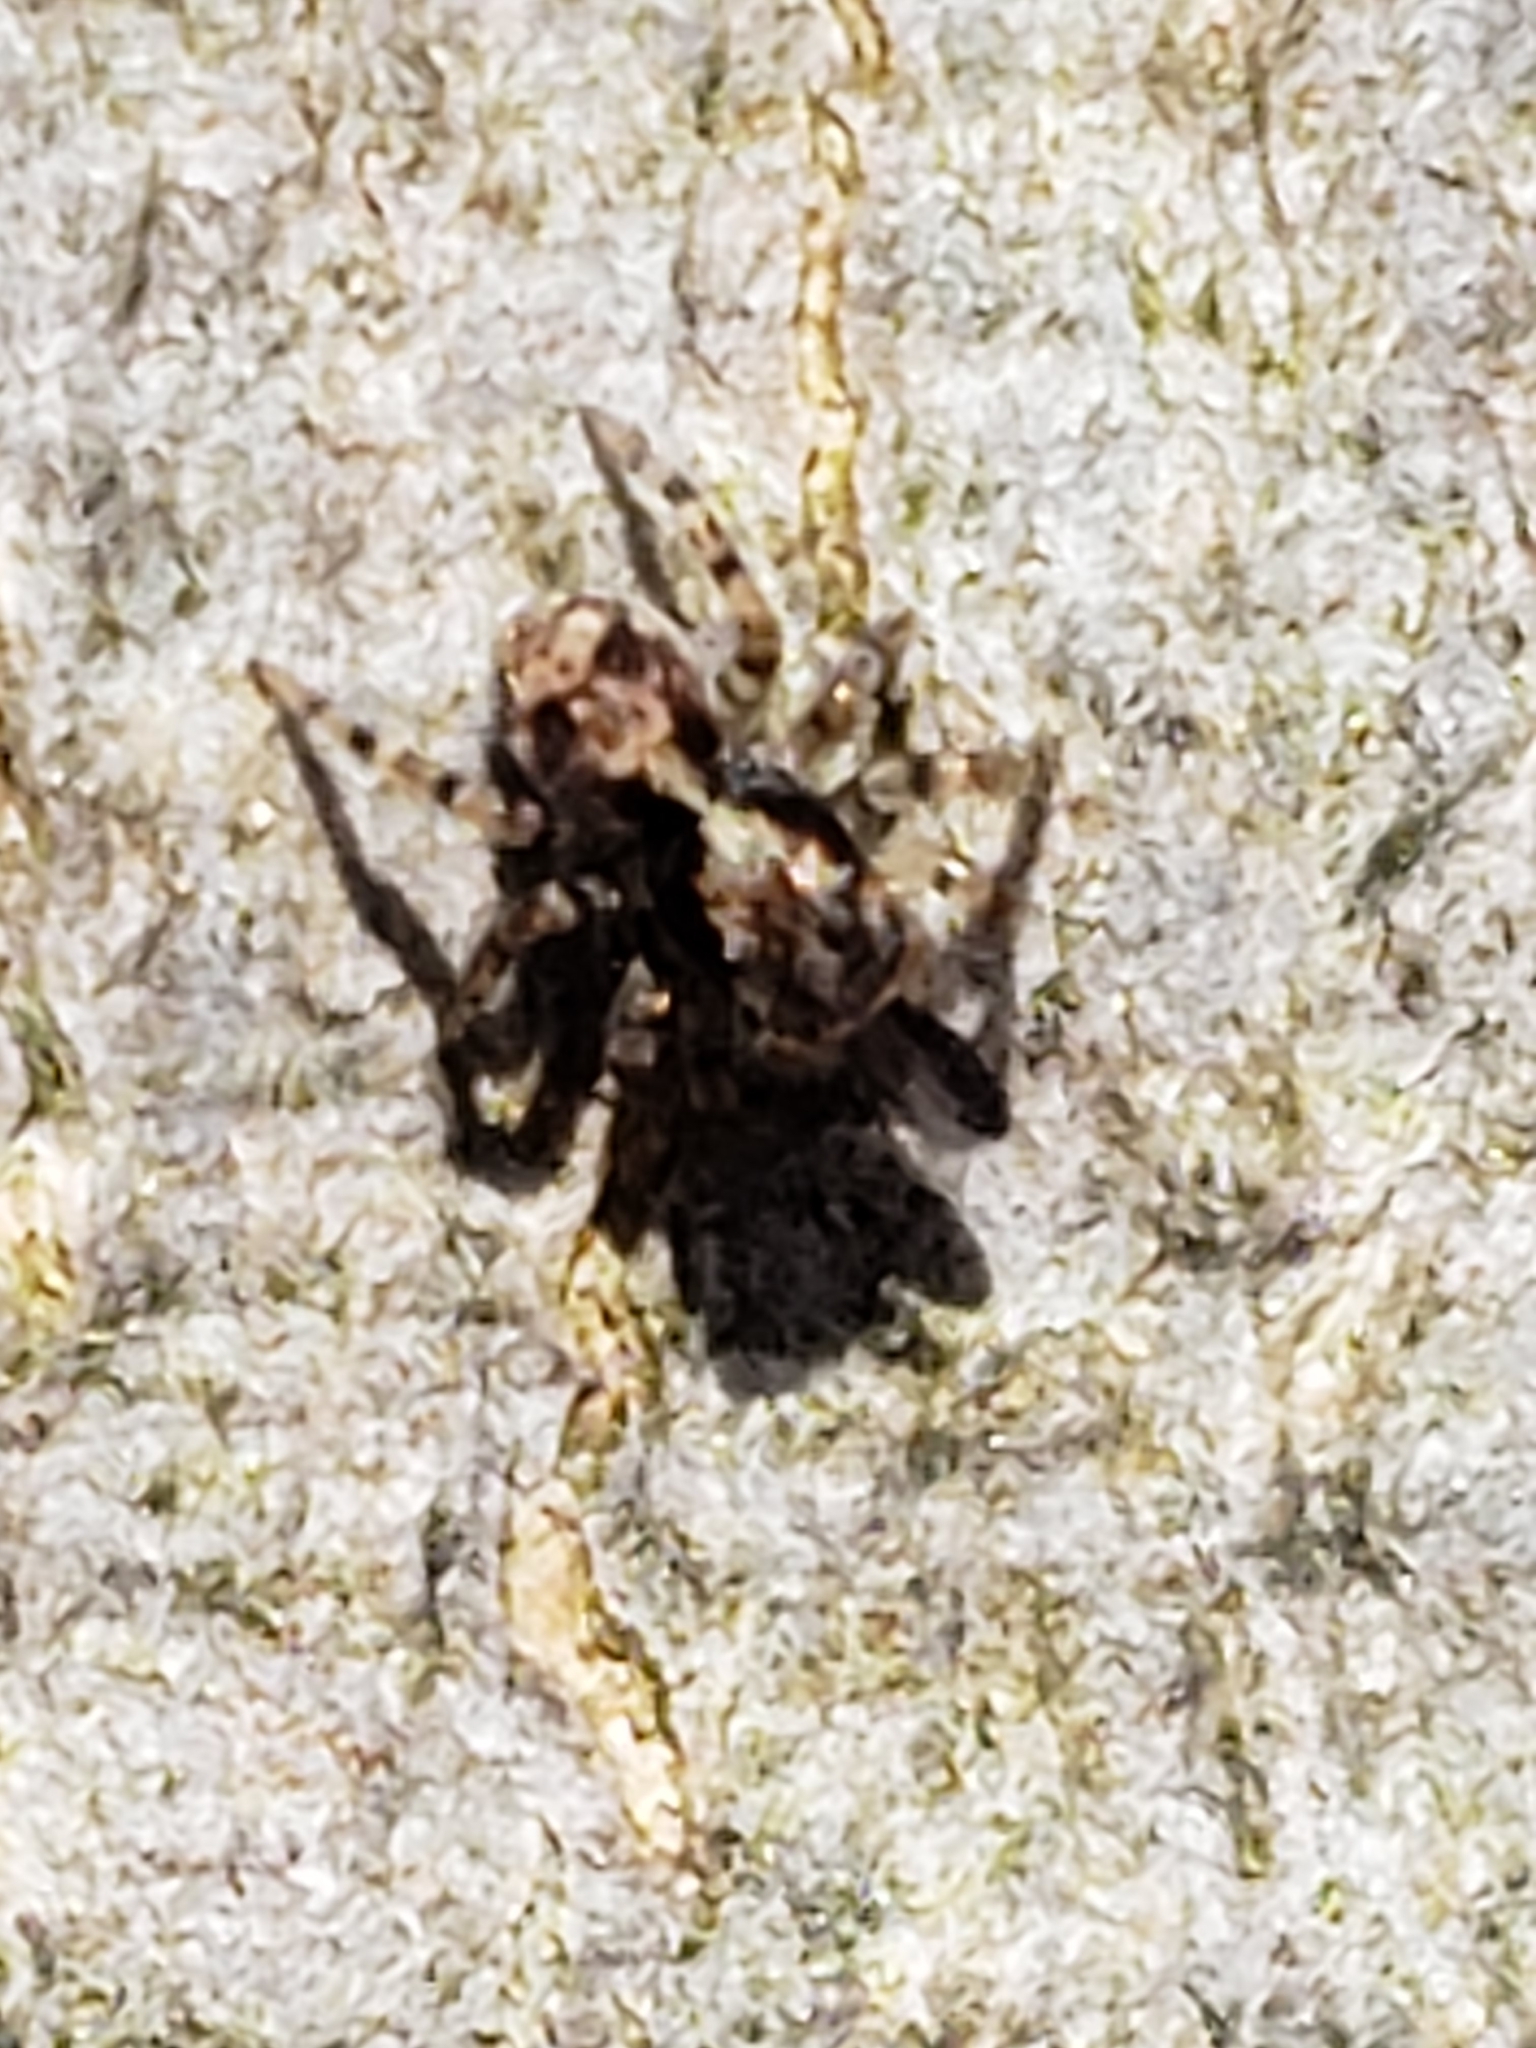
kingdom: Animalia
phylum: Arthropoda
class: Arachnida
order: Araneae
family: Salticidae
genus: Naphrys
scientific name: Naphrys pulex
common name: Flea jumping spider
